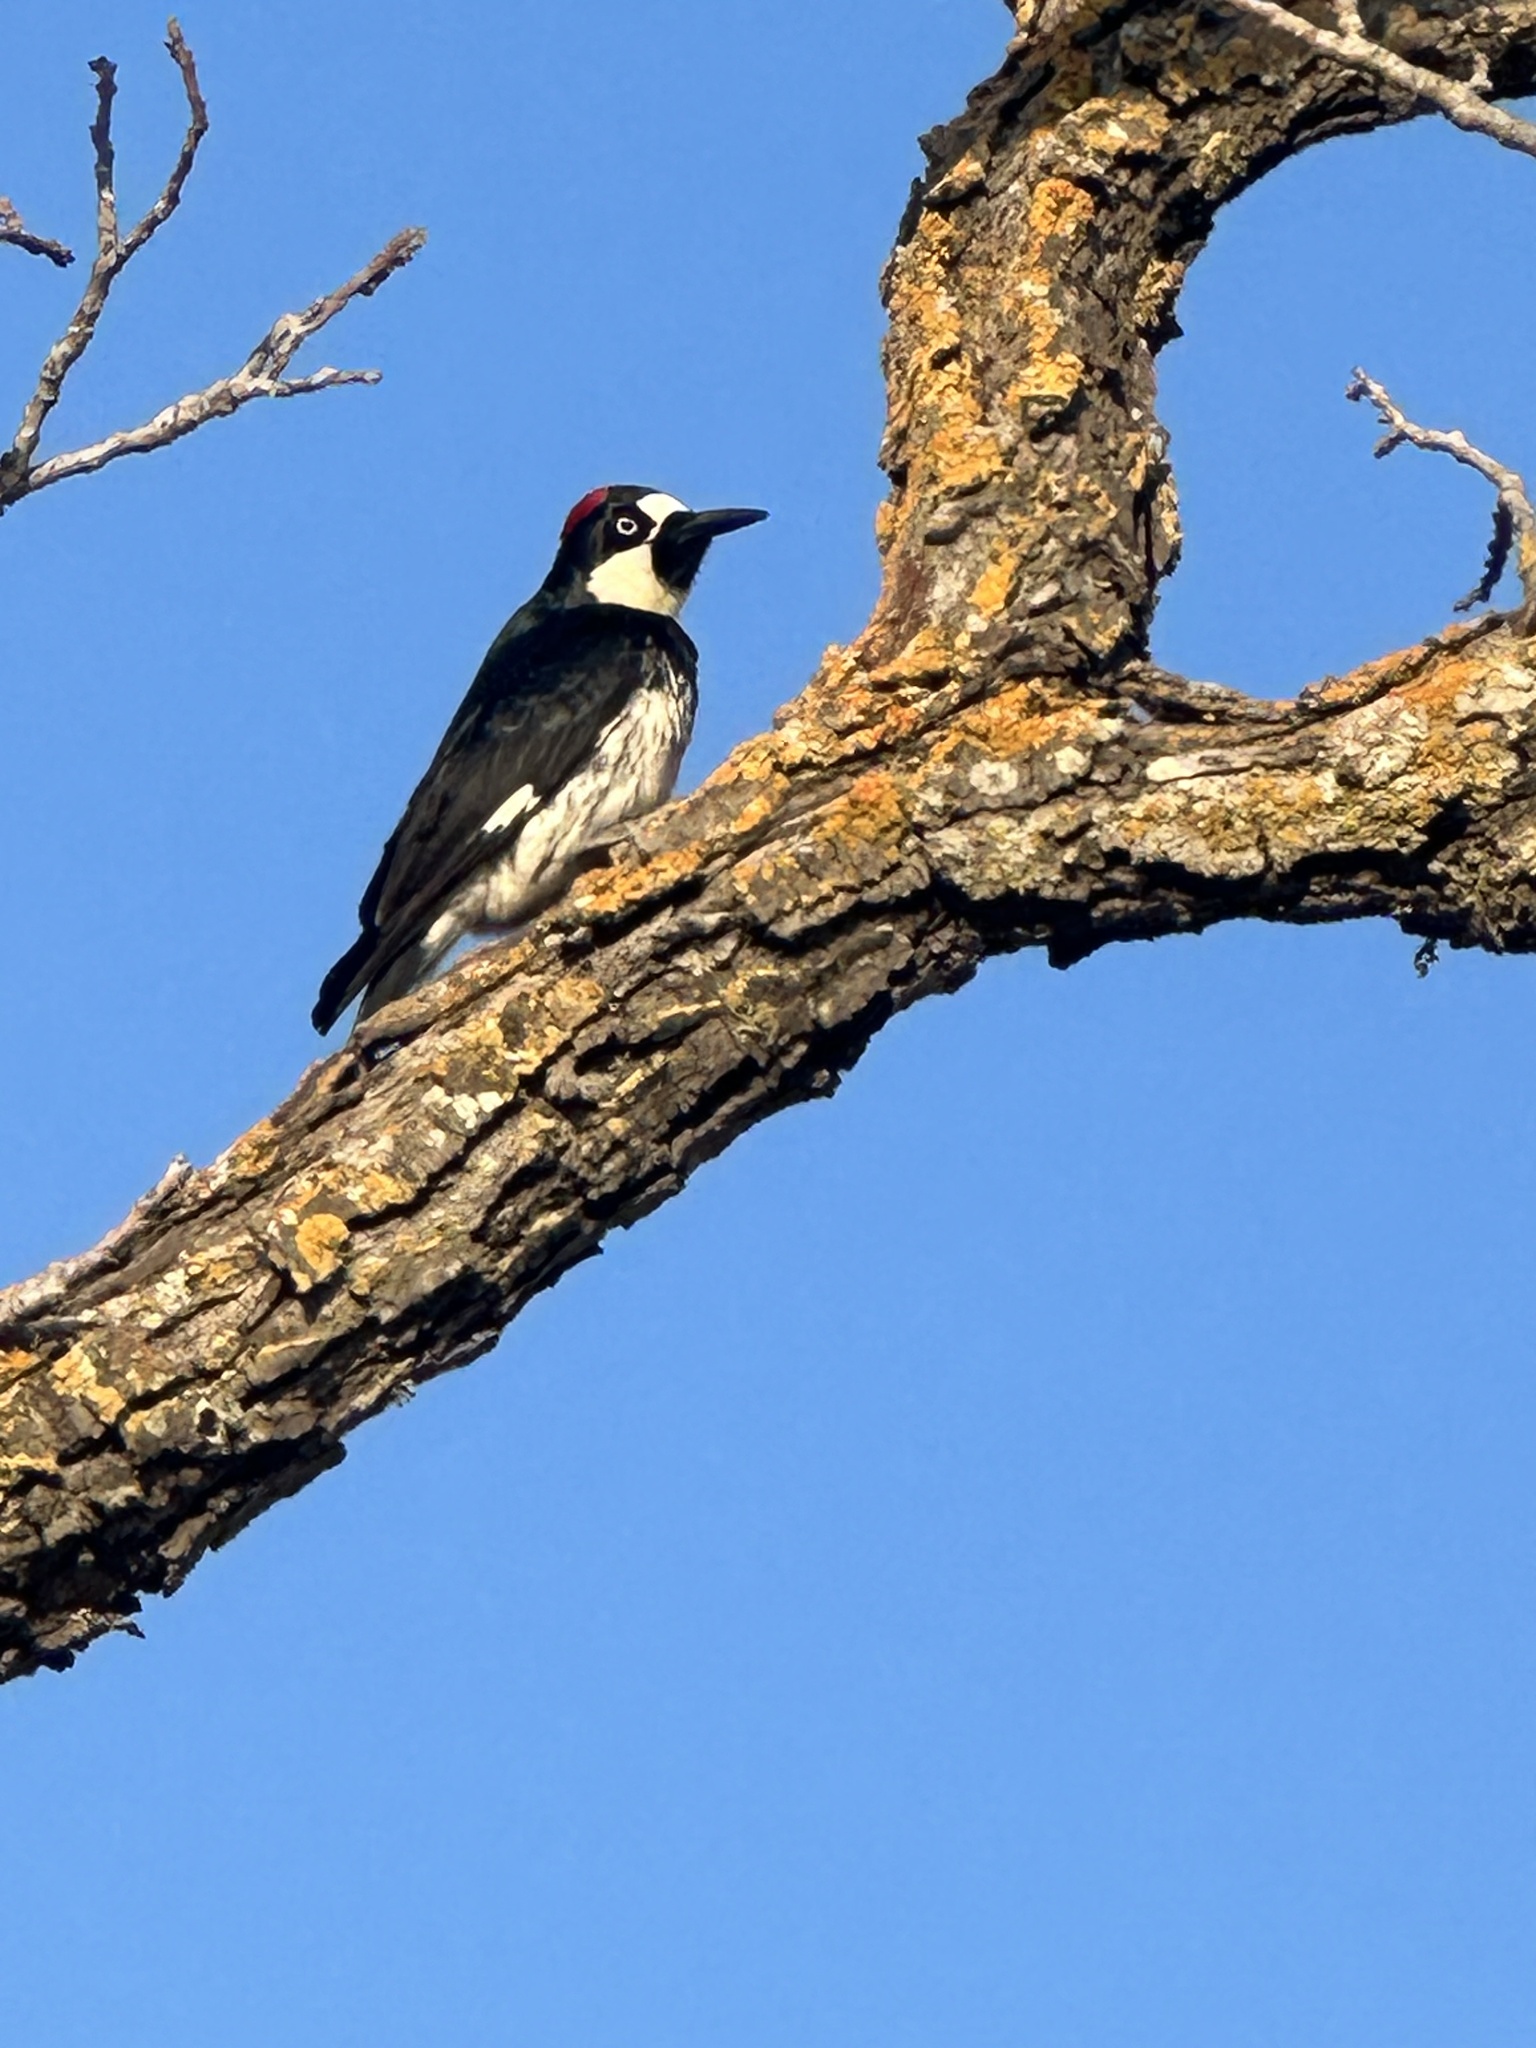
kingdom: Animalia
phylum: Chordata
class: Aves
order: Piciformes
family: Picidae
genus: Melanerpes
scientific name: Melanerpes formicivorus
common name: Acorn woodpecker
